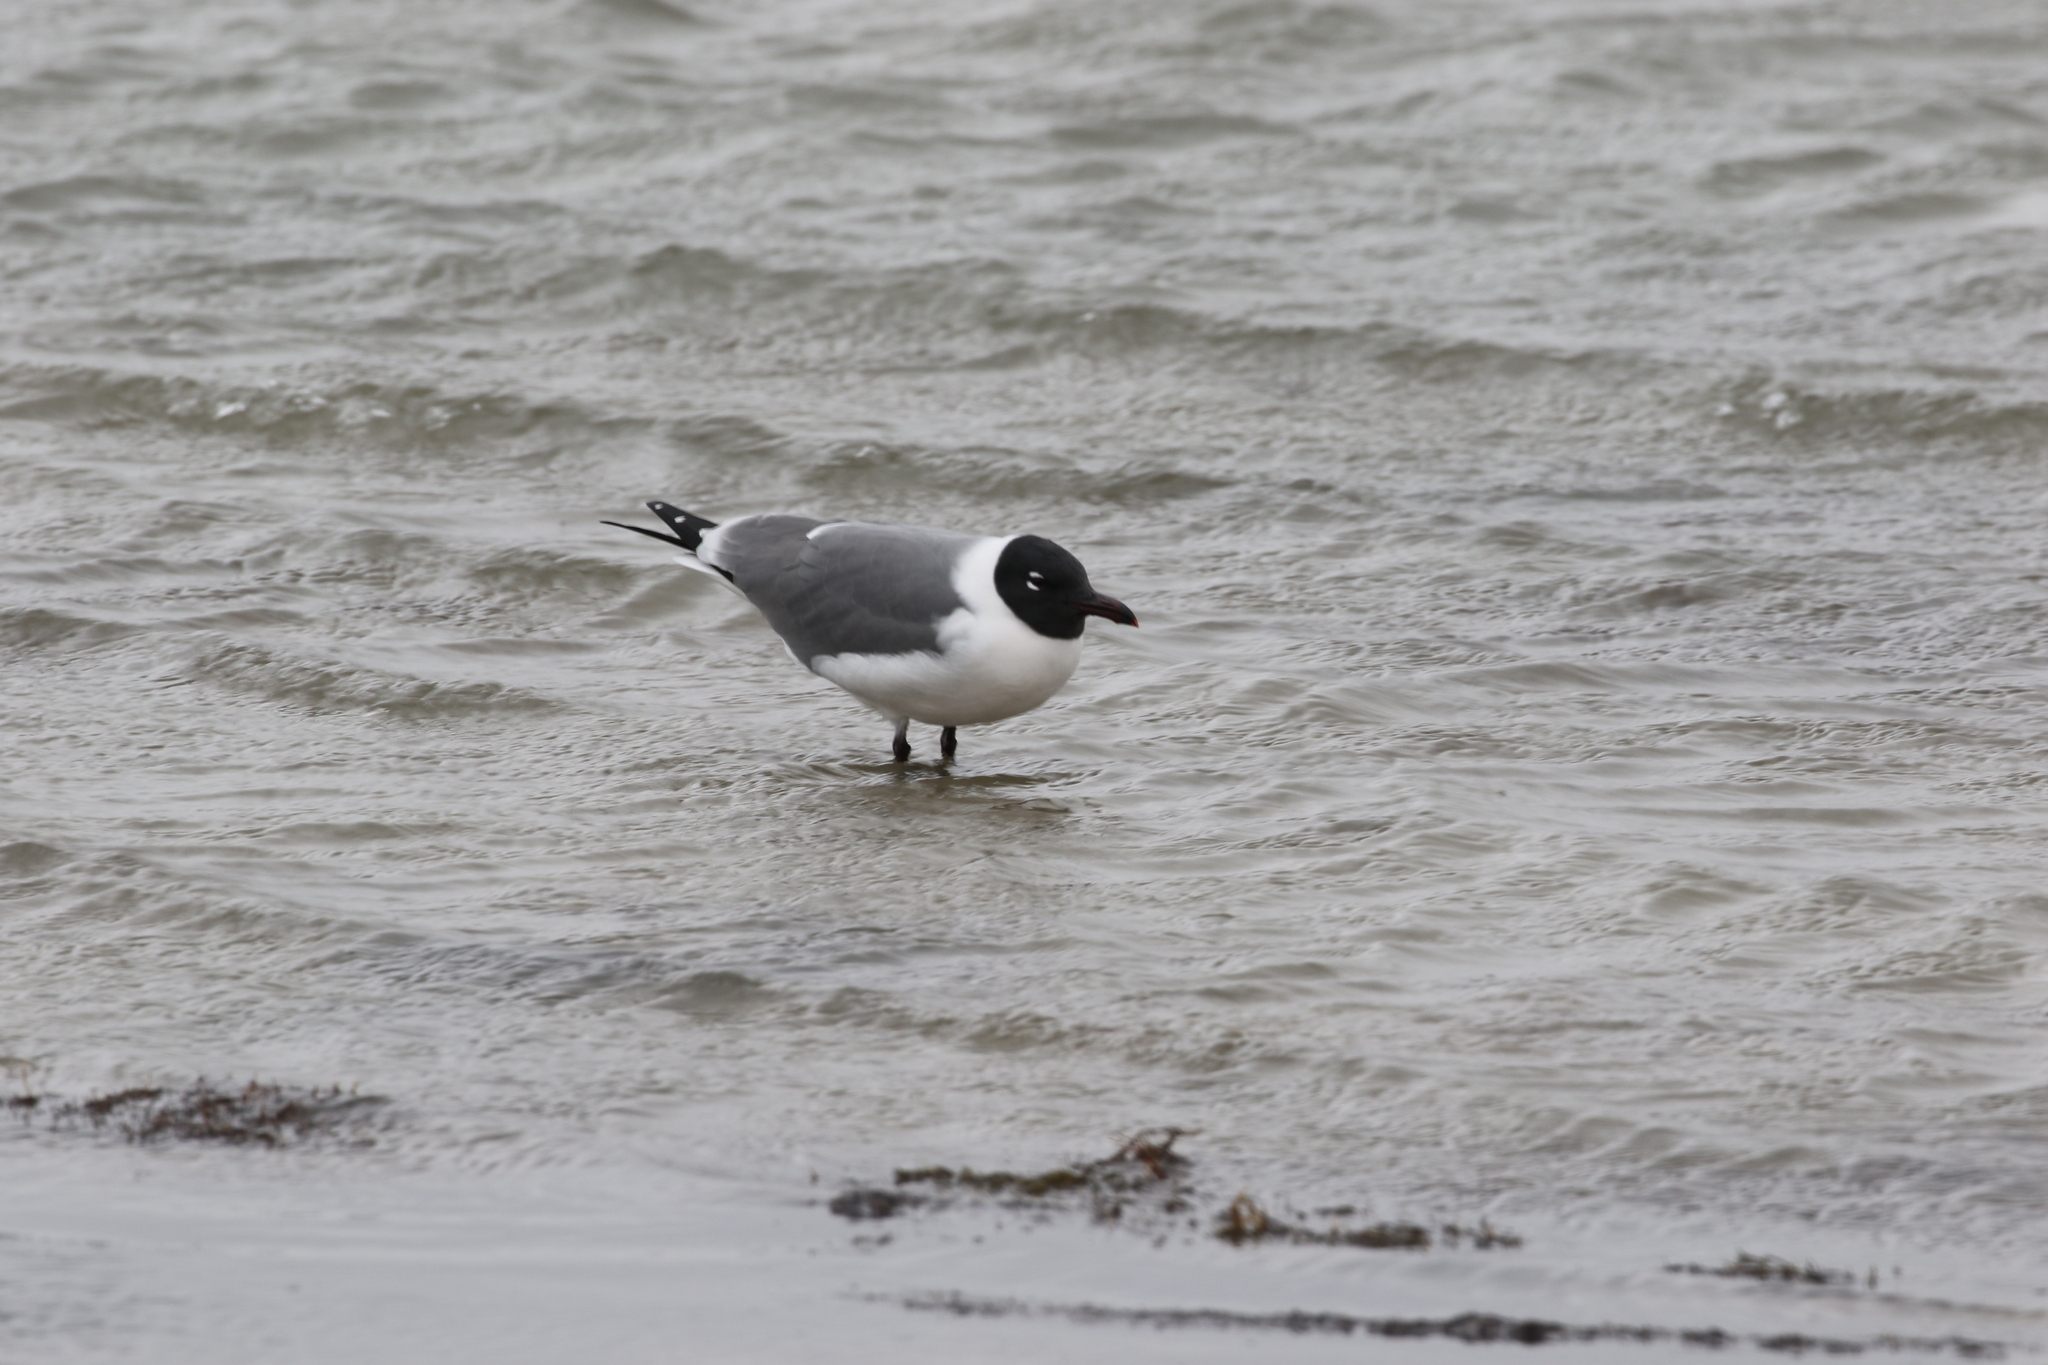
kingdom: Animalia
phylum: Chordata
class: Aves
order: Charadriiformes
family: Laridae
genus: Leucophaeus
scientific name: Leucophaeus atricilla
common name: Laughing gull
